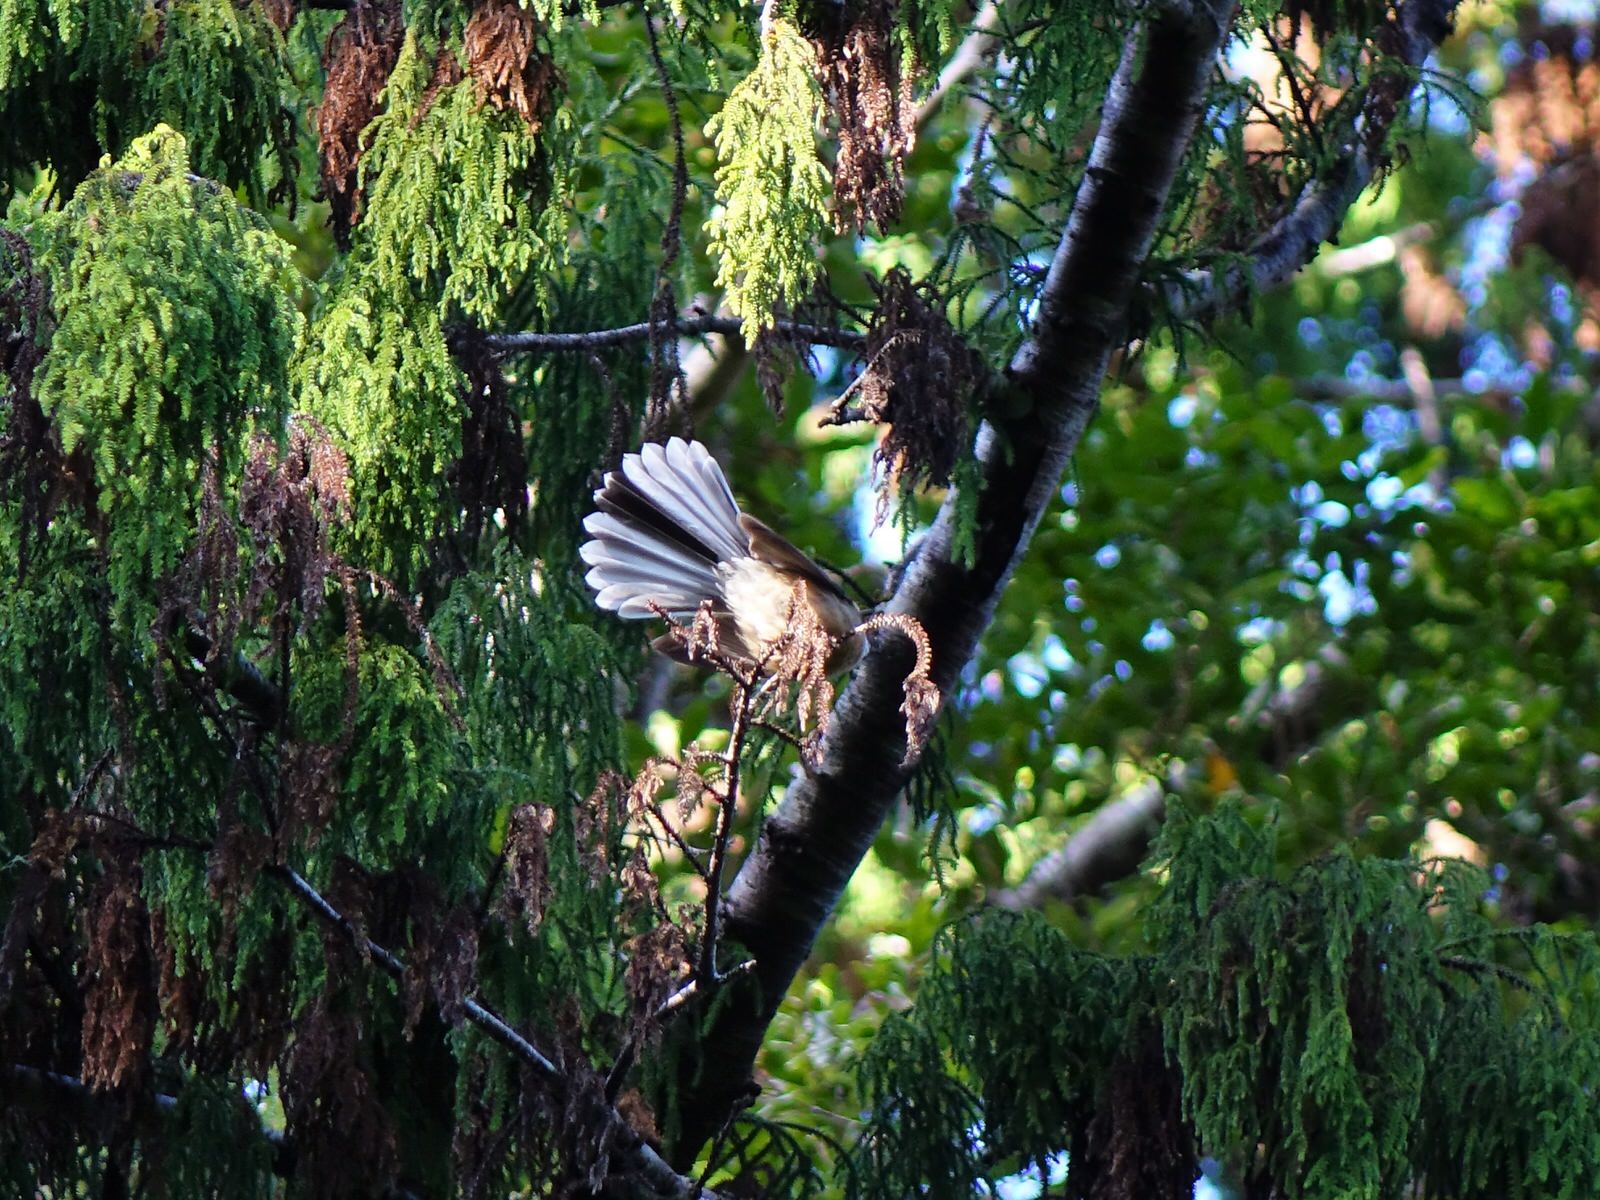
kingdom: Animalia
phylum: Chordata
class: Aves
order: Passeriformes
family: Rhipiduridae
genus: Rhipidura
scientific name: Rhipidura fuliginosa
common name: New zealand fantail
